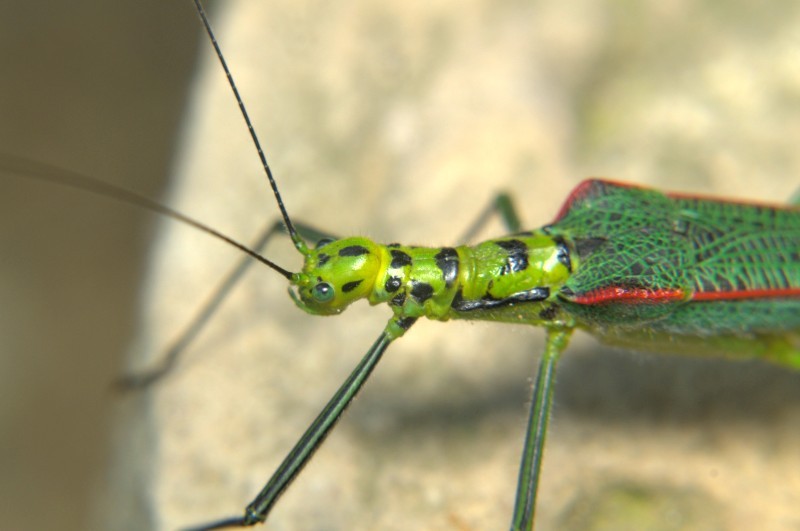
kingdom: Animalia
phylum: Arthropoda
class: Insecta
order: Phasmida
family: Lonchodidae
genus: Tagesoidea
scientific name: Tagesoidea tages
